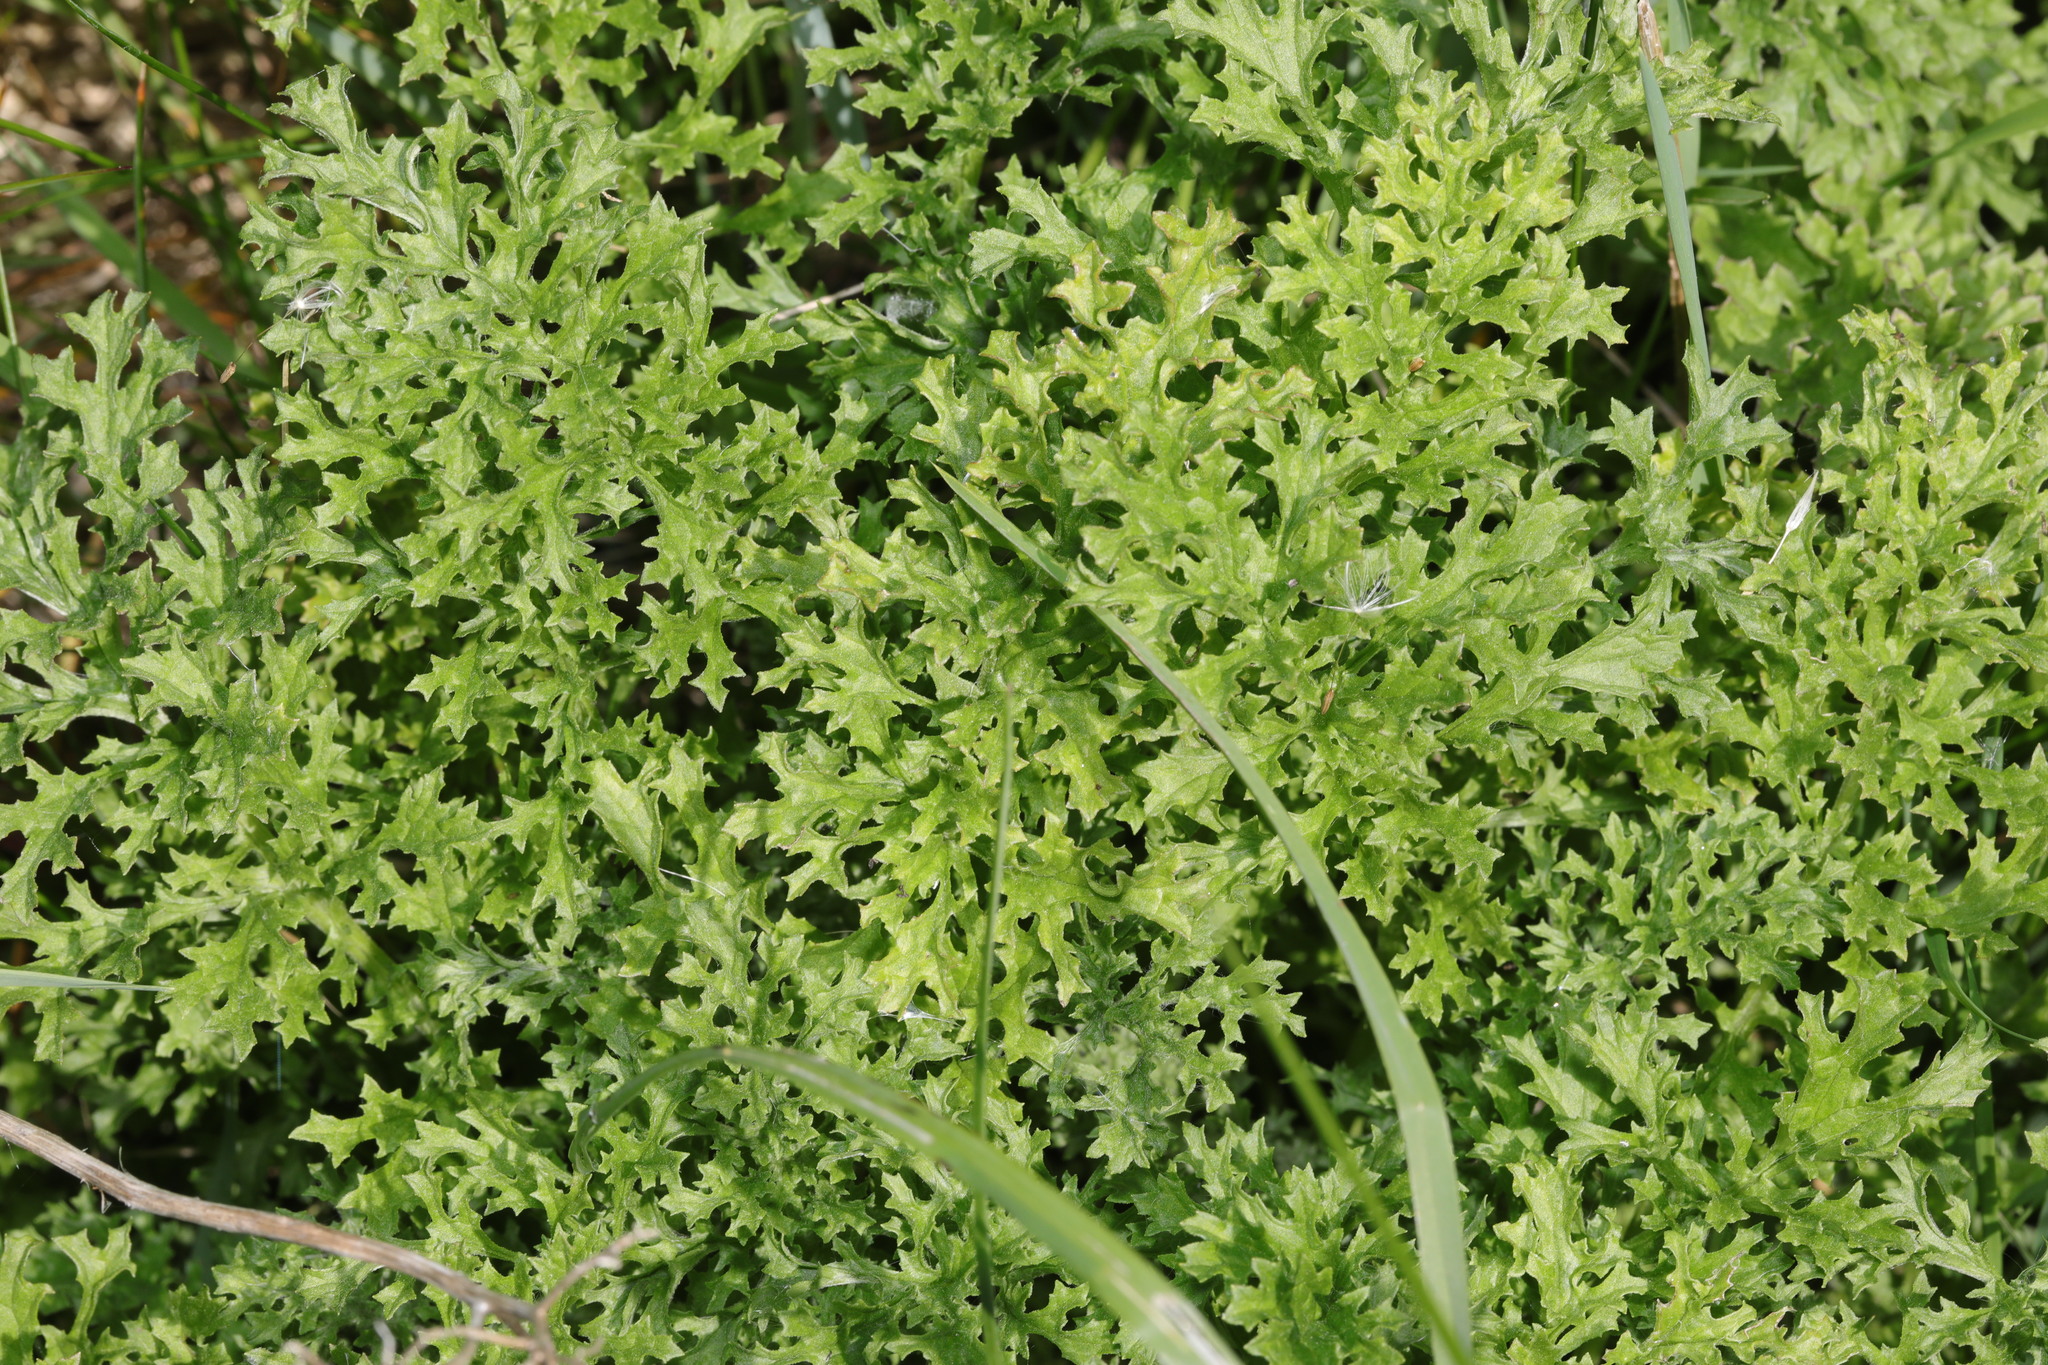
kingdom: Plantae
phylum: Tracheophyta
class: Magnoliopsida
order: Asterales
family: Asteraceae
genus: Jacobaea
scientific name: Jacobaea vulgaris
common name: Stinking willie
